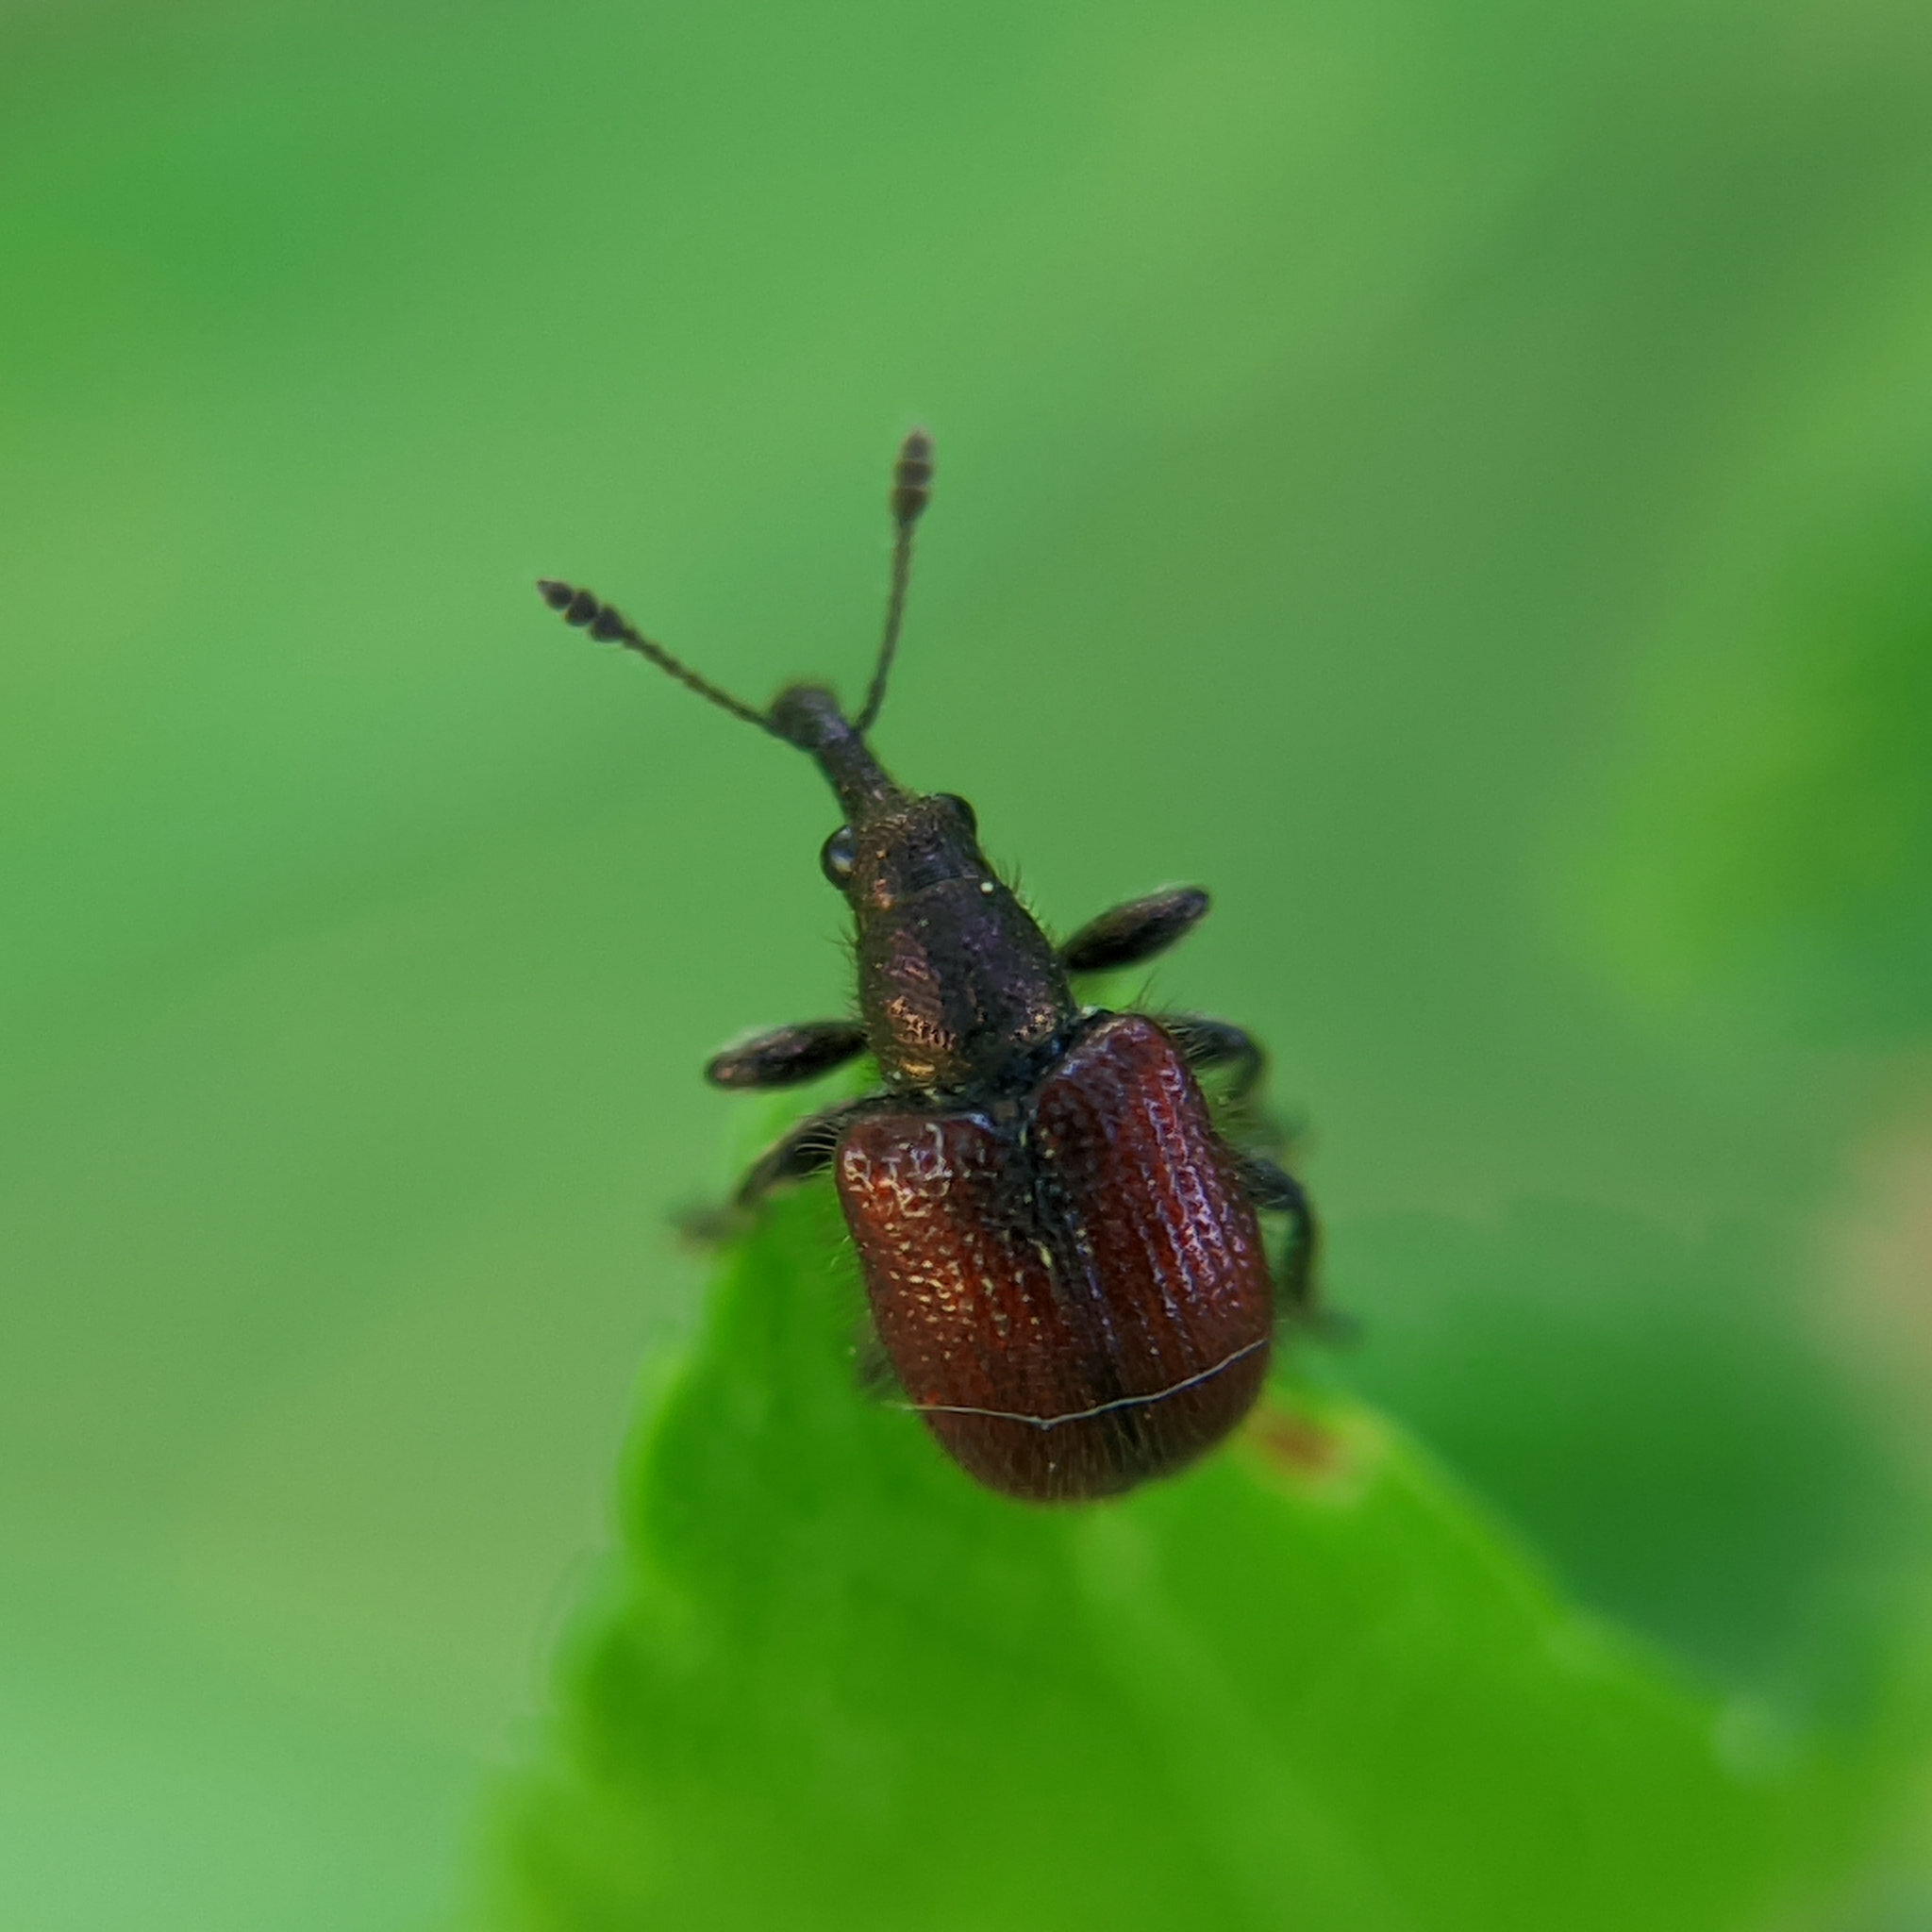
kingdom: Animalia
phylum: Arthropoda
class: Insecta
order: Coleoptera
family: Rhynchitidae
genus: Tatianaerhynchites
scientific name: Tatianaerhynchites aequatus
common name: Apple fruit rhynchites
